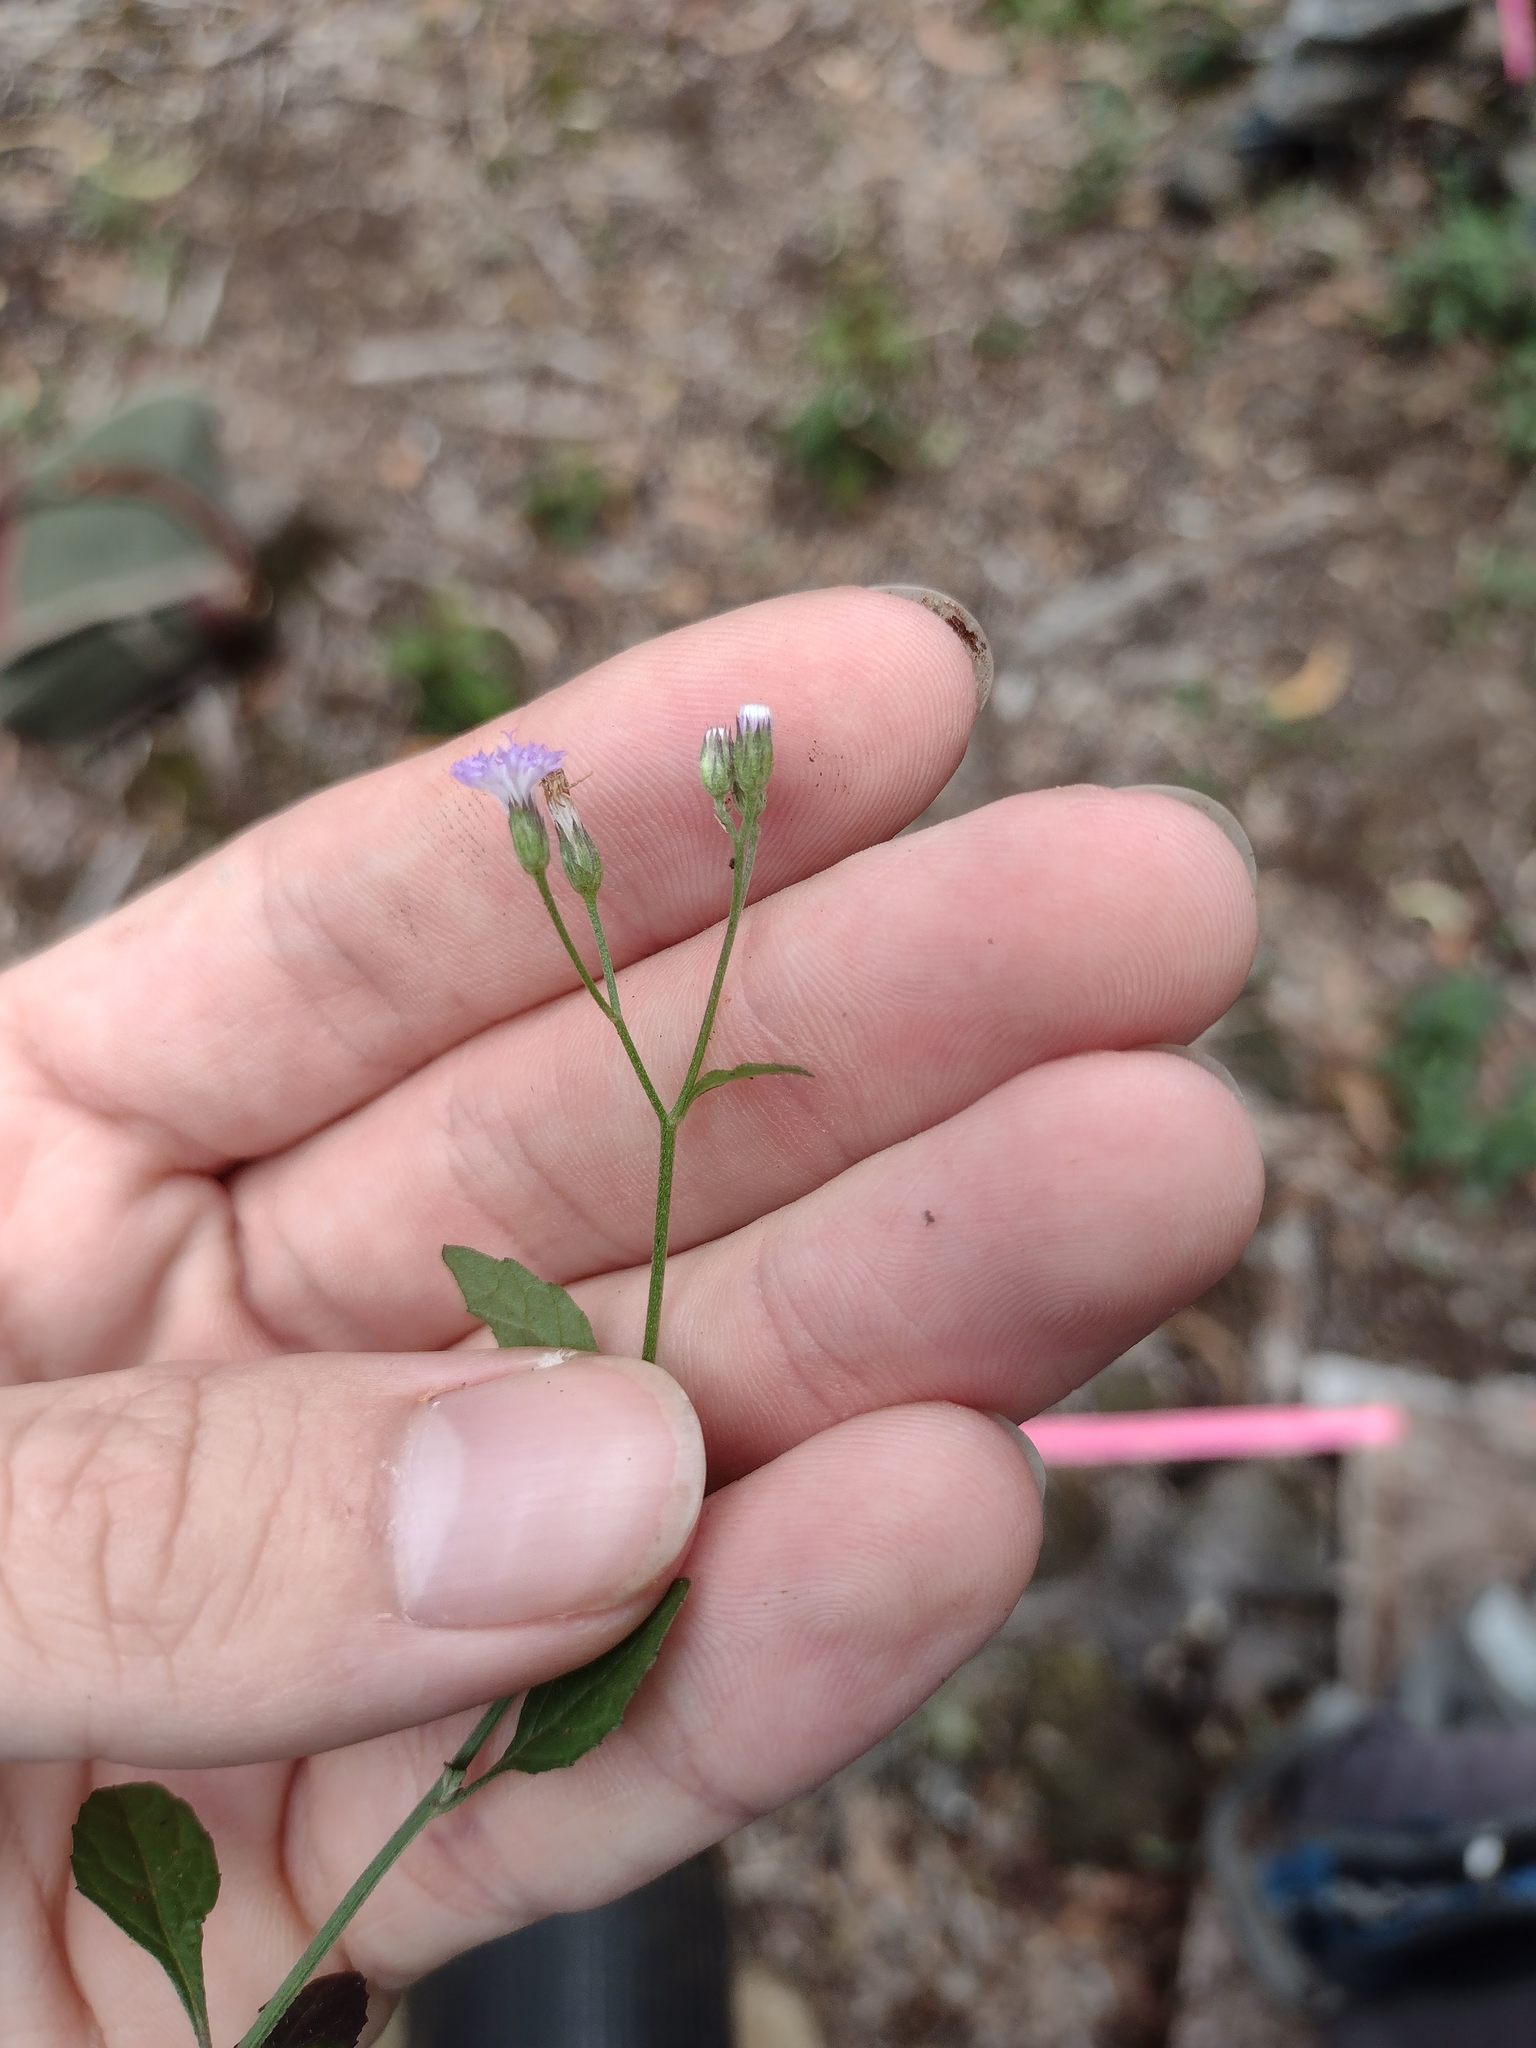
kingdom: Plantae
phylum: Tracheophyta
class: Magnoliopsida
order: Asterales
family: Asteraceae
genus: Cyanthillium
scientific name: Cyanthillium cinereum
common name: Little ironweed
